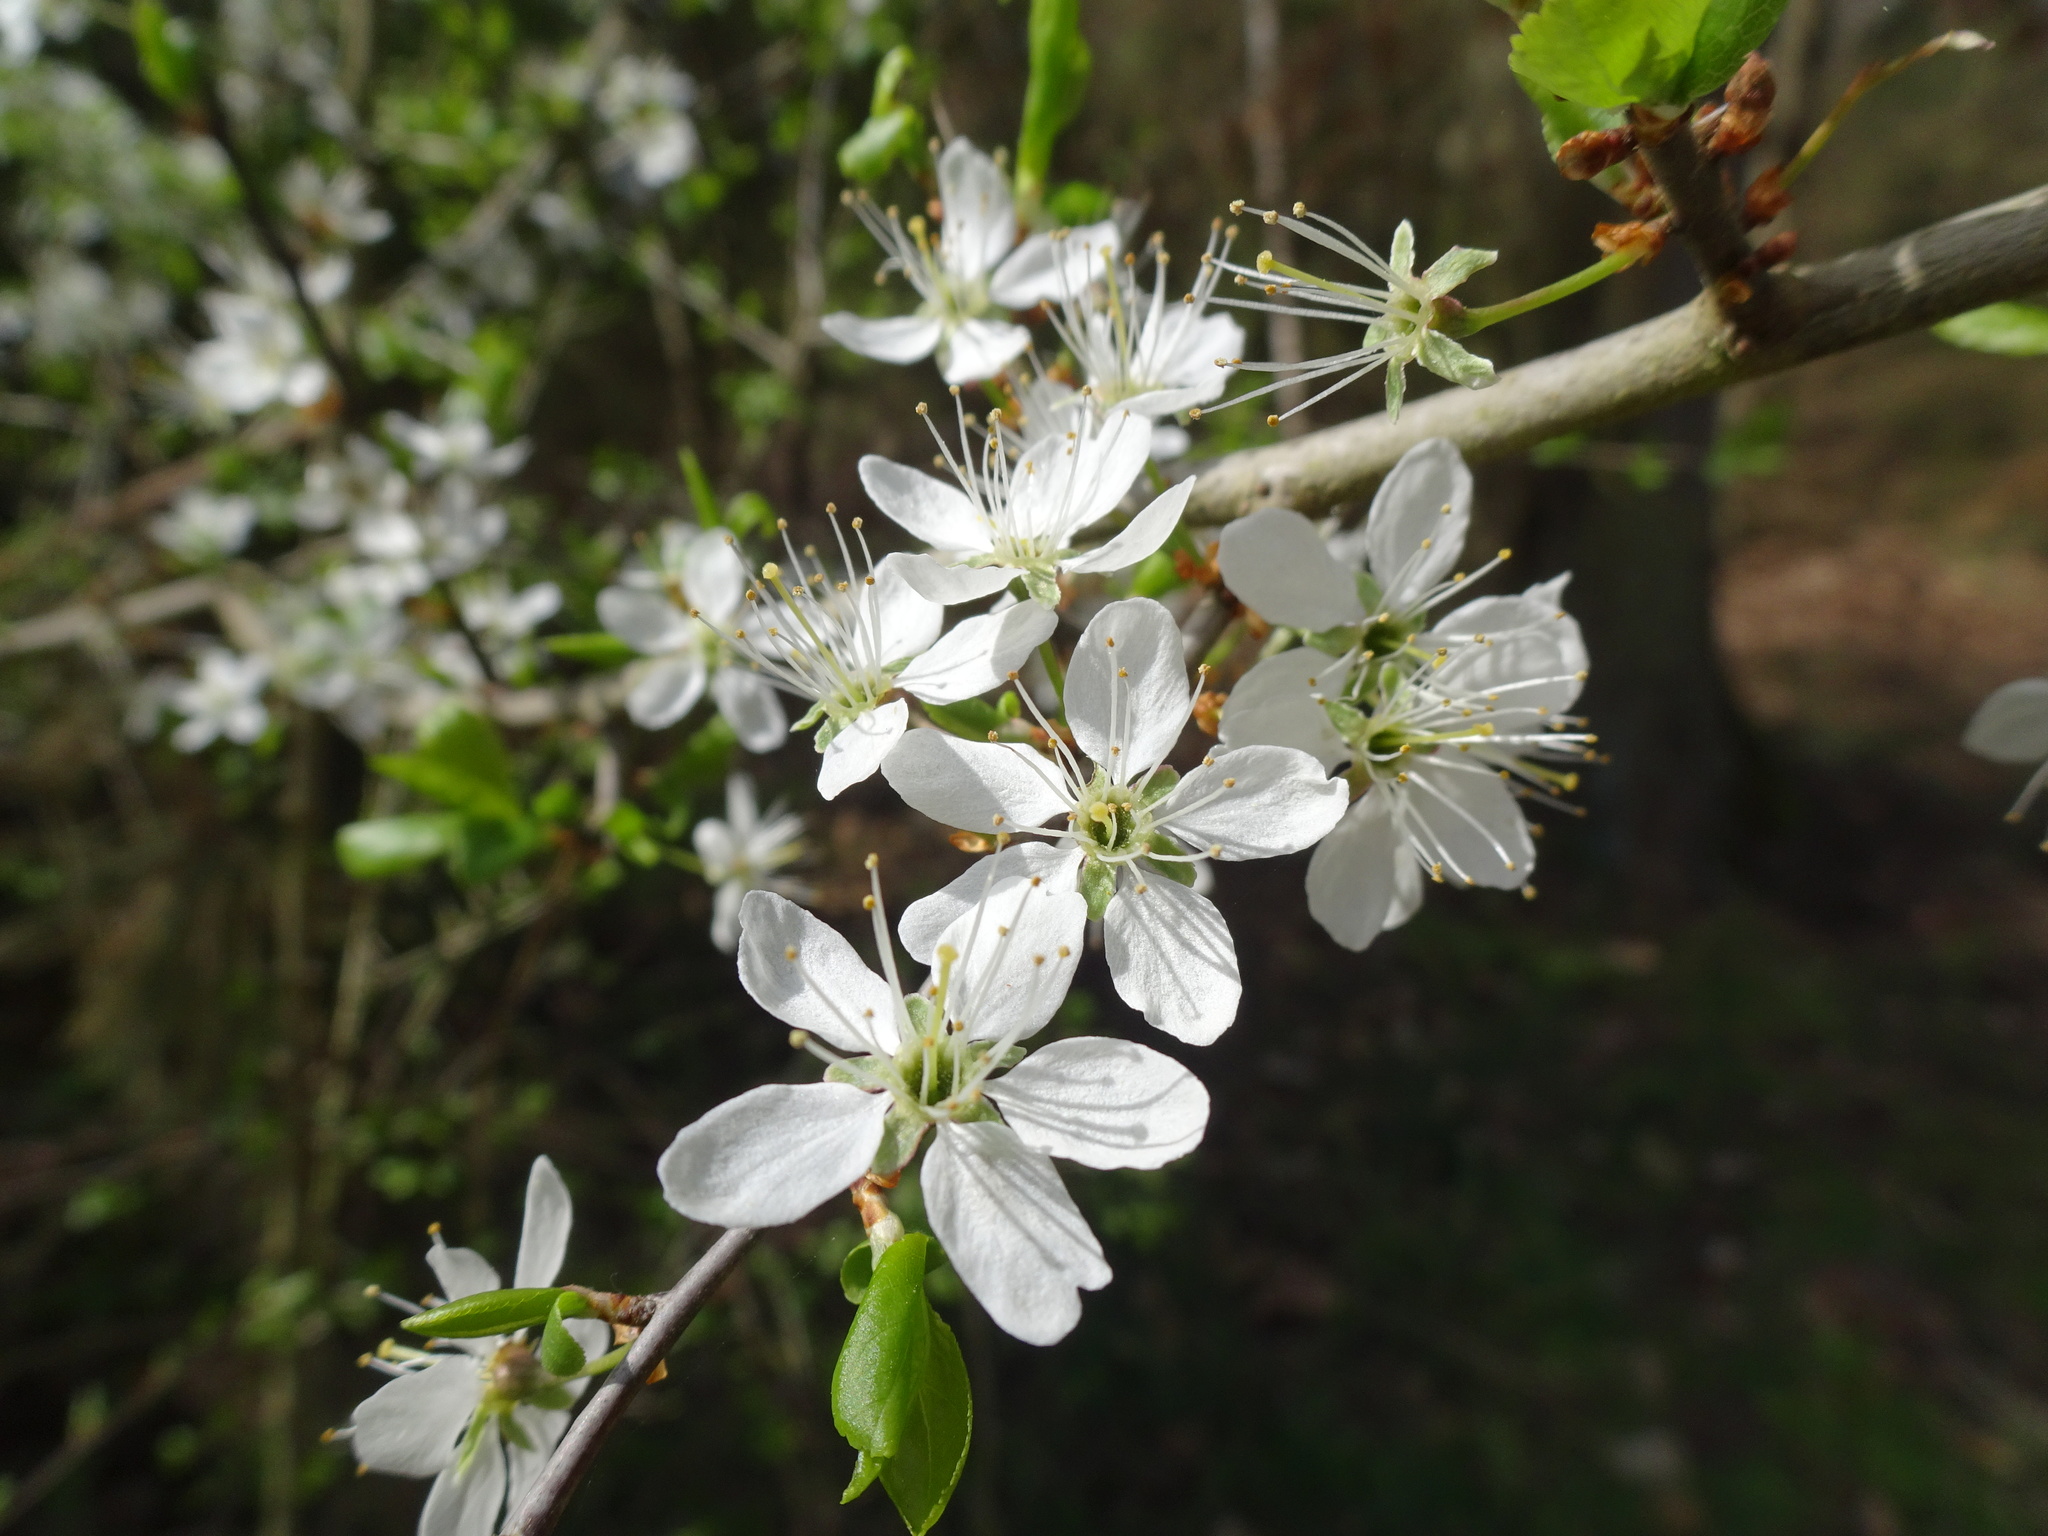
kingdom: Plantae
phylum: Tracheophyta
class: Magnoliopsida
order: Rosales
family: Rosaceae
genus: Prunus
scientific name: Prunus spinosa
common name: Blackthorn
